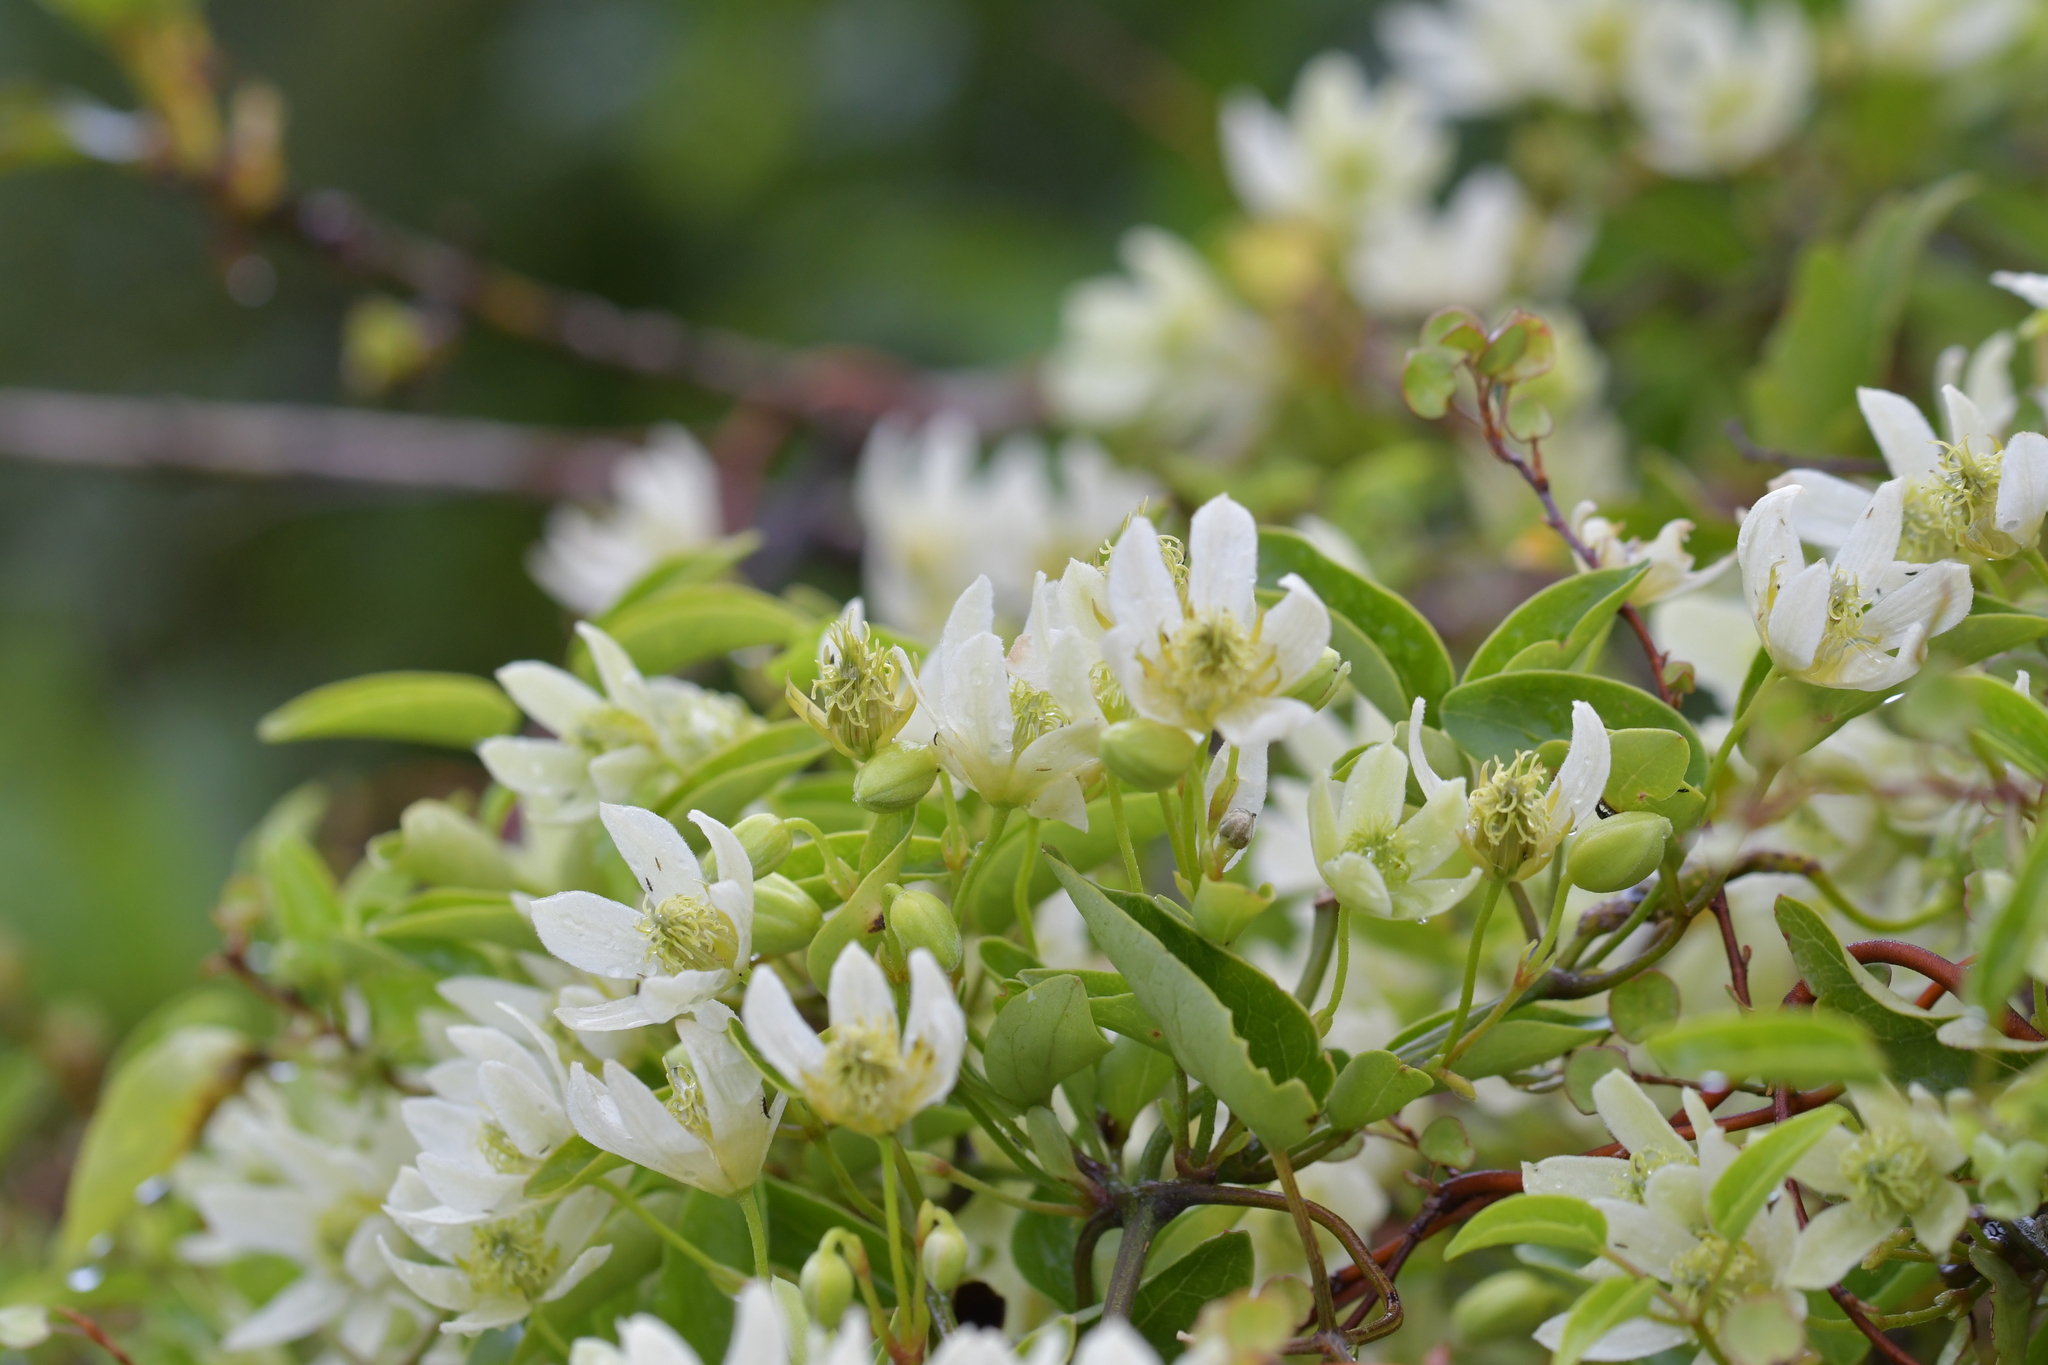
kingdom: Plantae
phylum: Tracheophyta
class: Magnoliopsida
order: Ranunculales
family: Ranunculaceae
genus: Clematis
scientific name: Clematis forsteri
